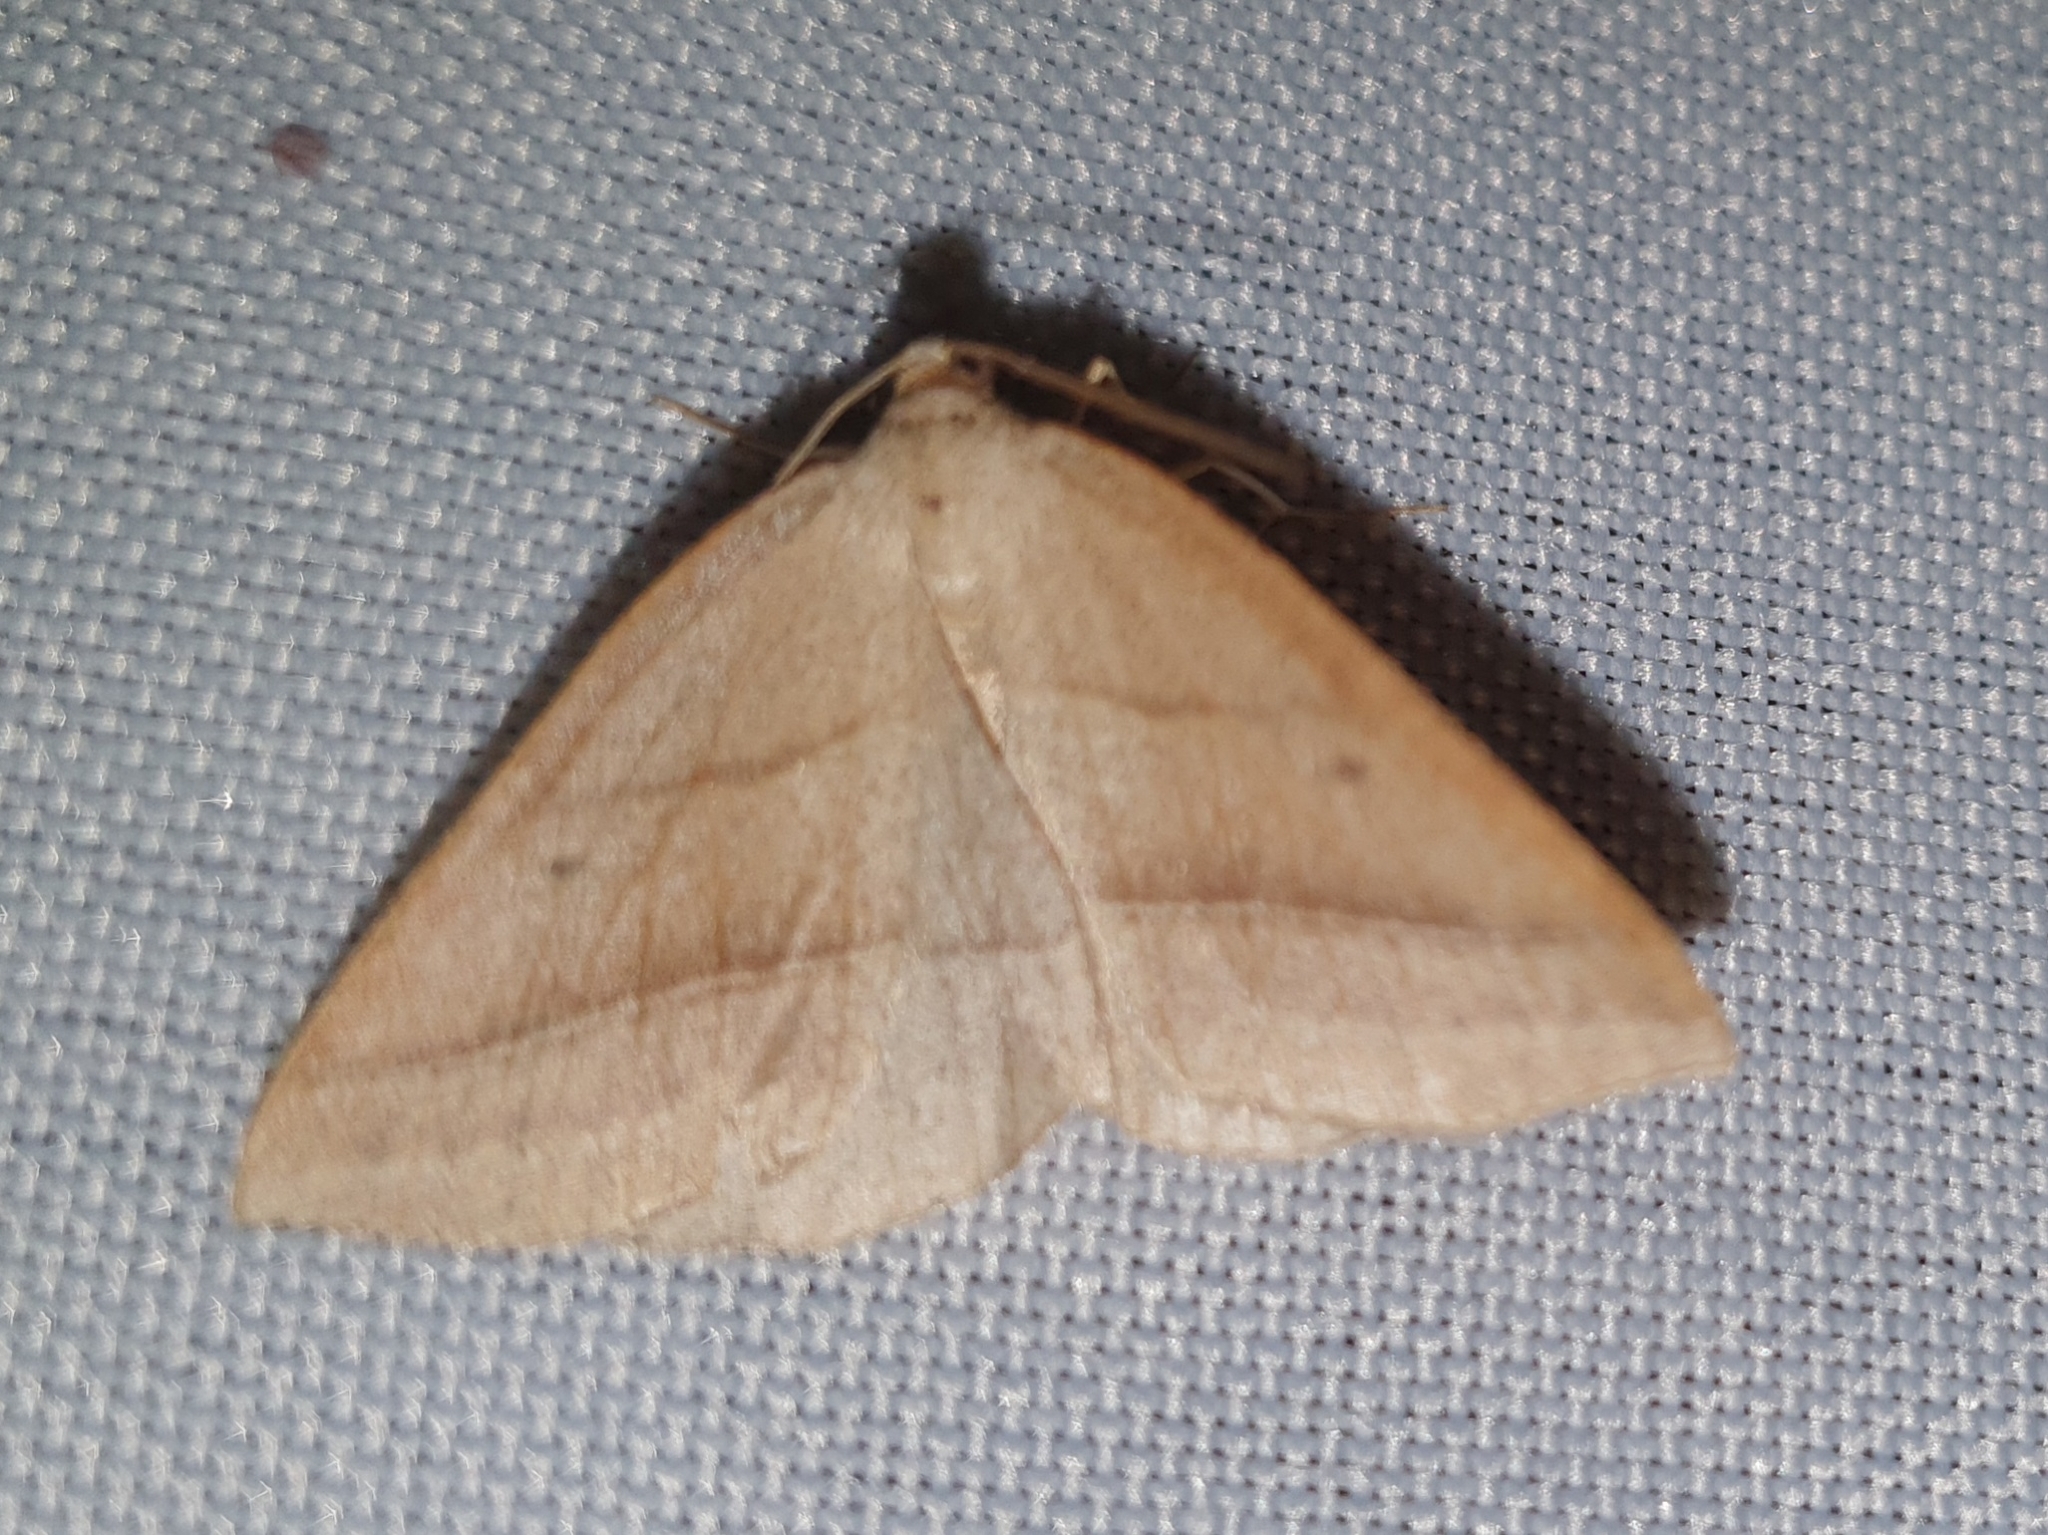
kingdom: Animalia
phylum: Arthropoda
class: Insecta
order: Lepidoptera
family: Pterophoridae
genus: Pterophorus
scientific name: Pterophorus Petrophora chlorosata
